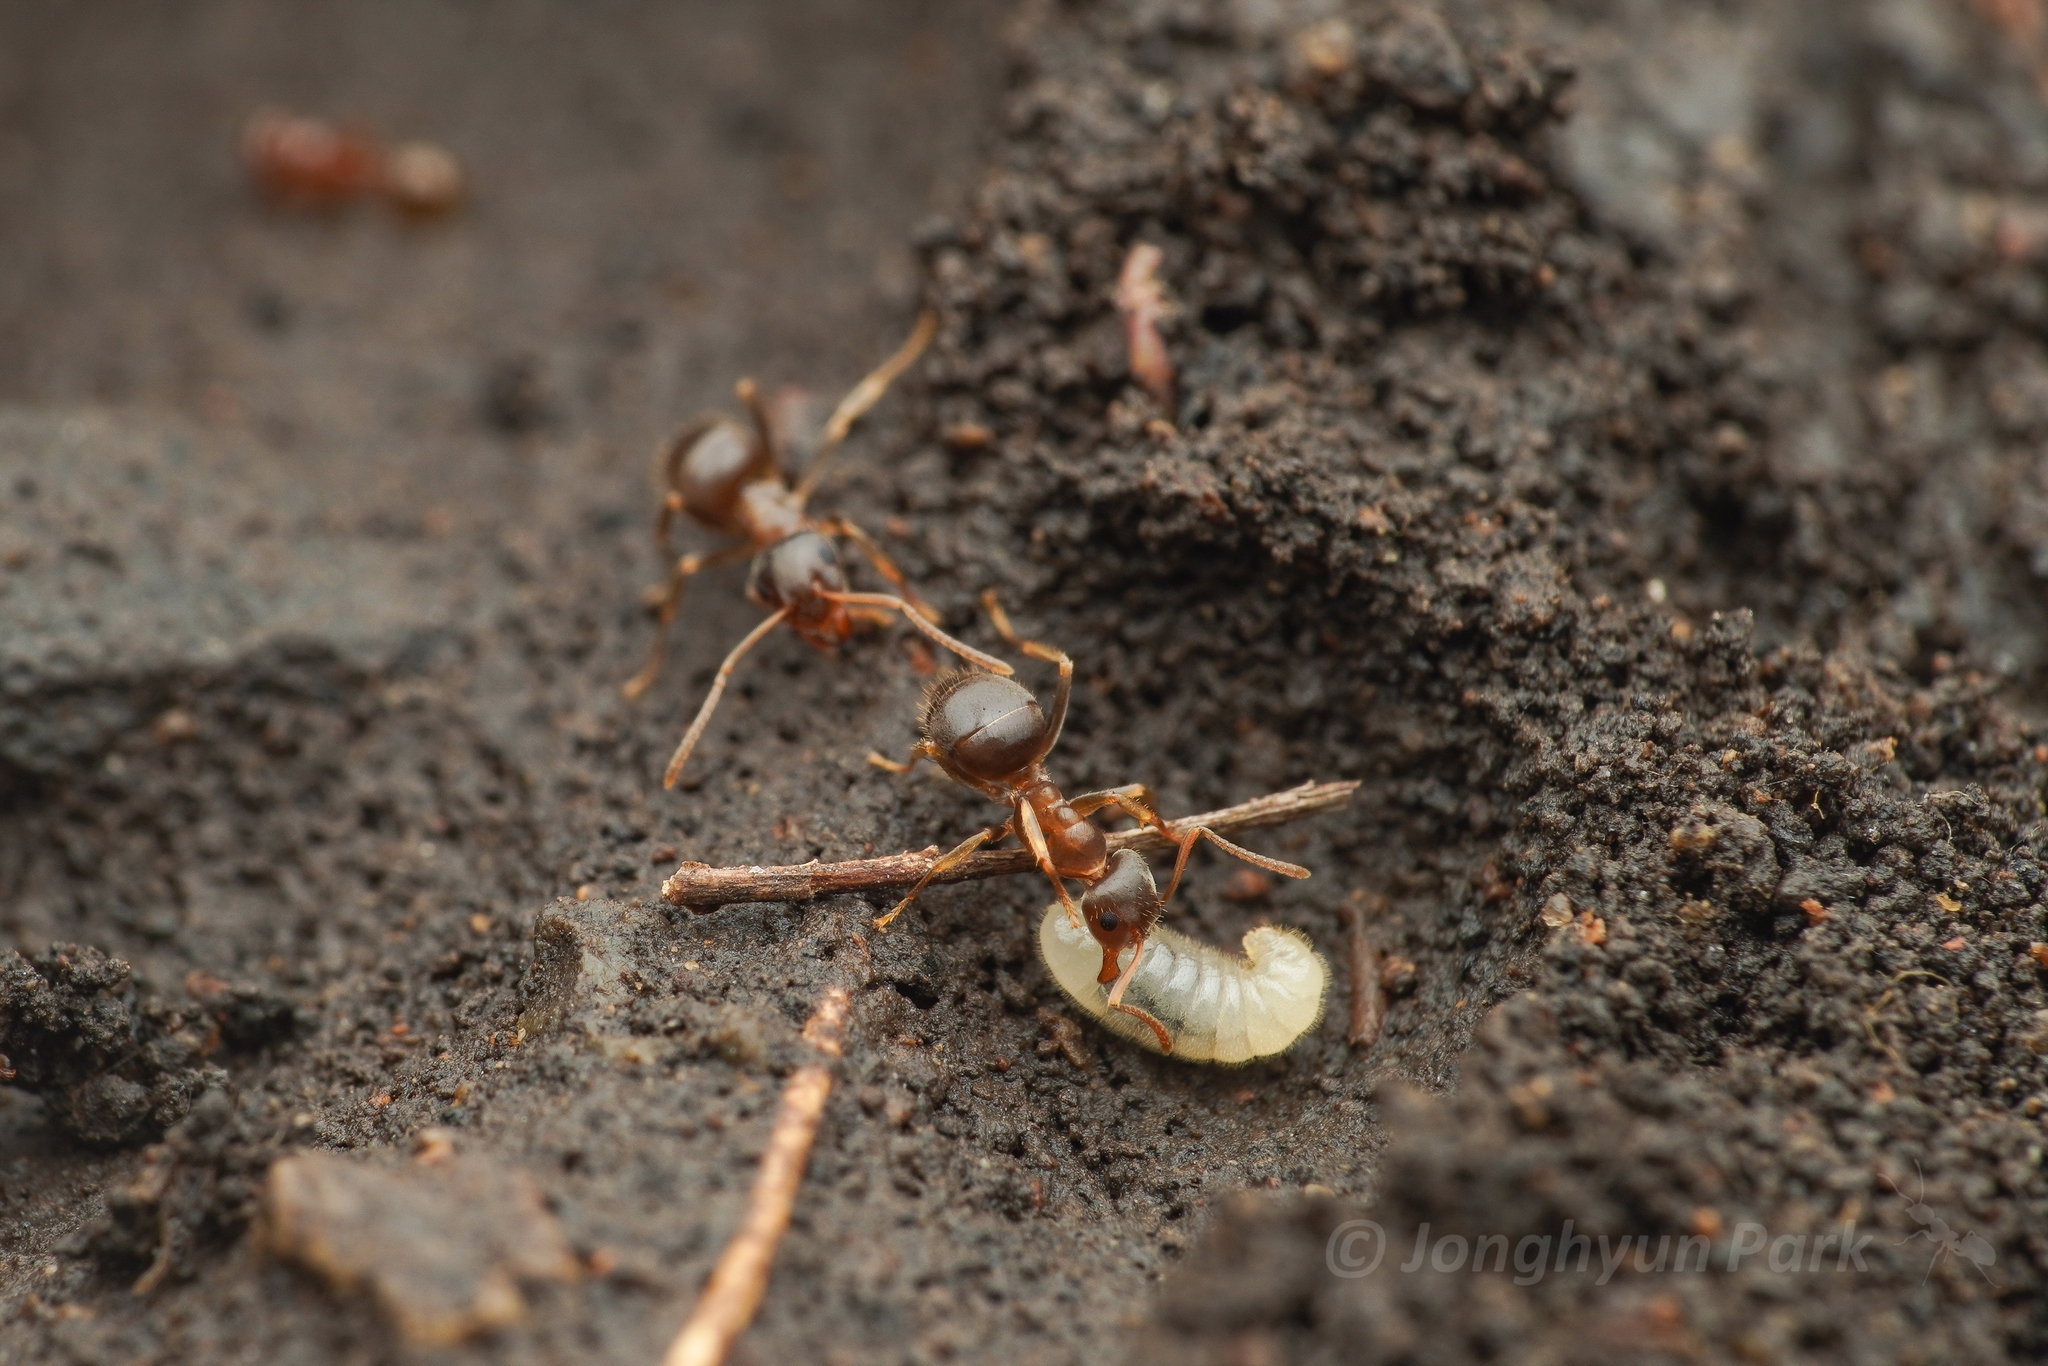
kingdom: Animalia
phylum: Arthropoda
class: Insecta
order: Hymenoptera
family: Formicidae
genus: Lasius
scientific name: Lasius koreanus
